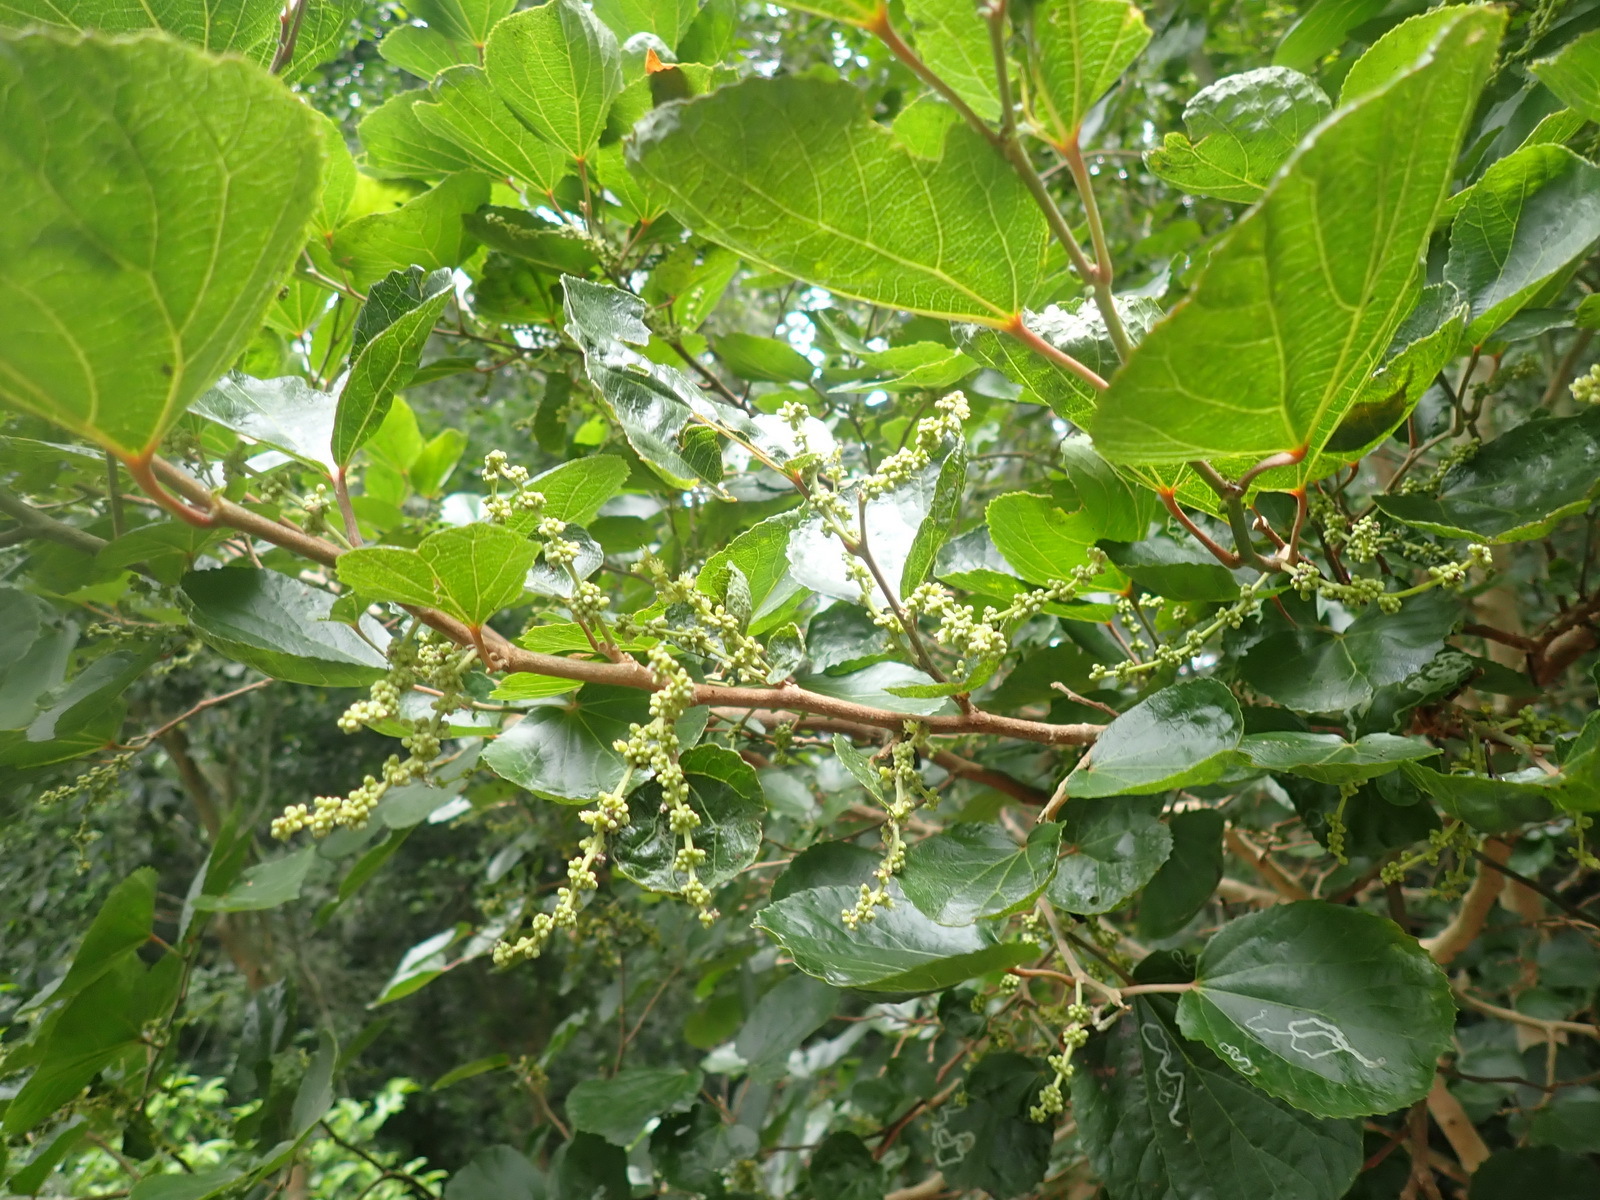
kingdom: Plantae
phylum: Tracheophyta
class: Magnoliopsida
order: Malpighiales
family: Salicaceae
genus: Trimeria
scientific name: Trimeria grandifolia
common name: Wild mulberry
